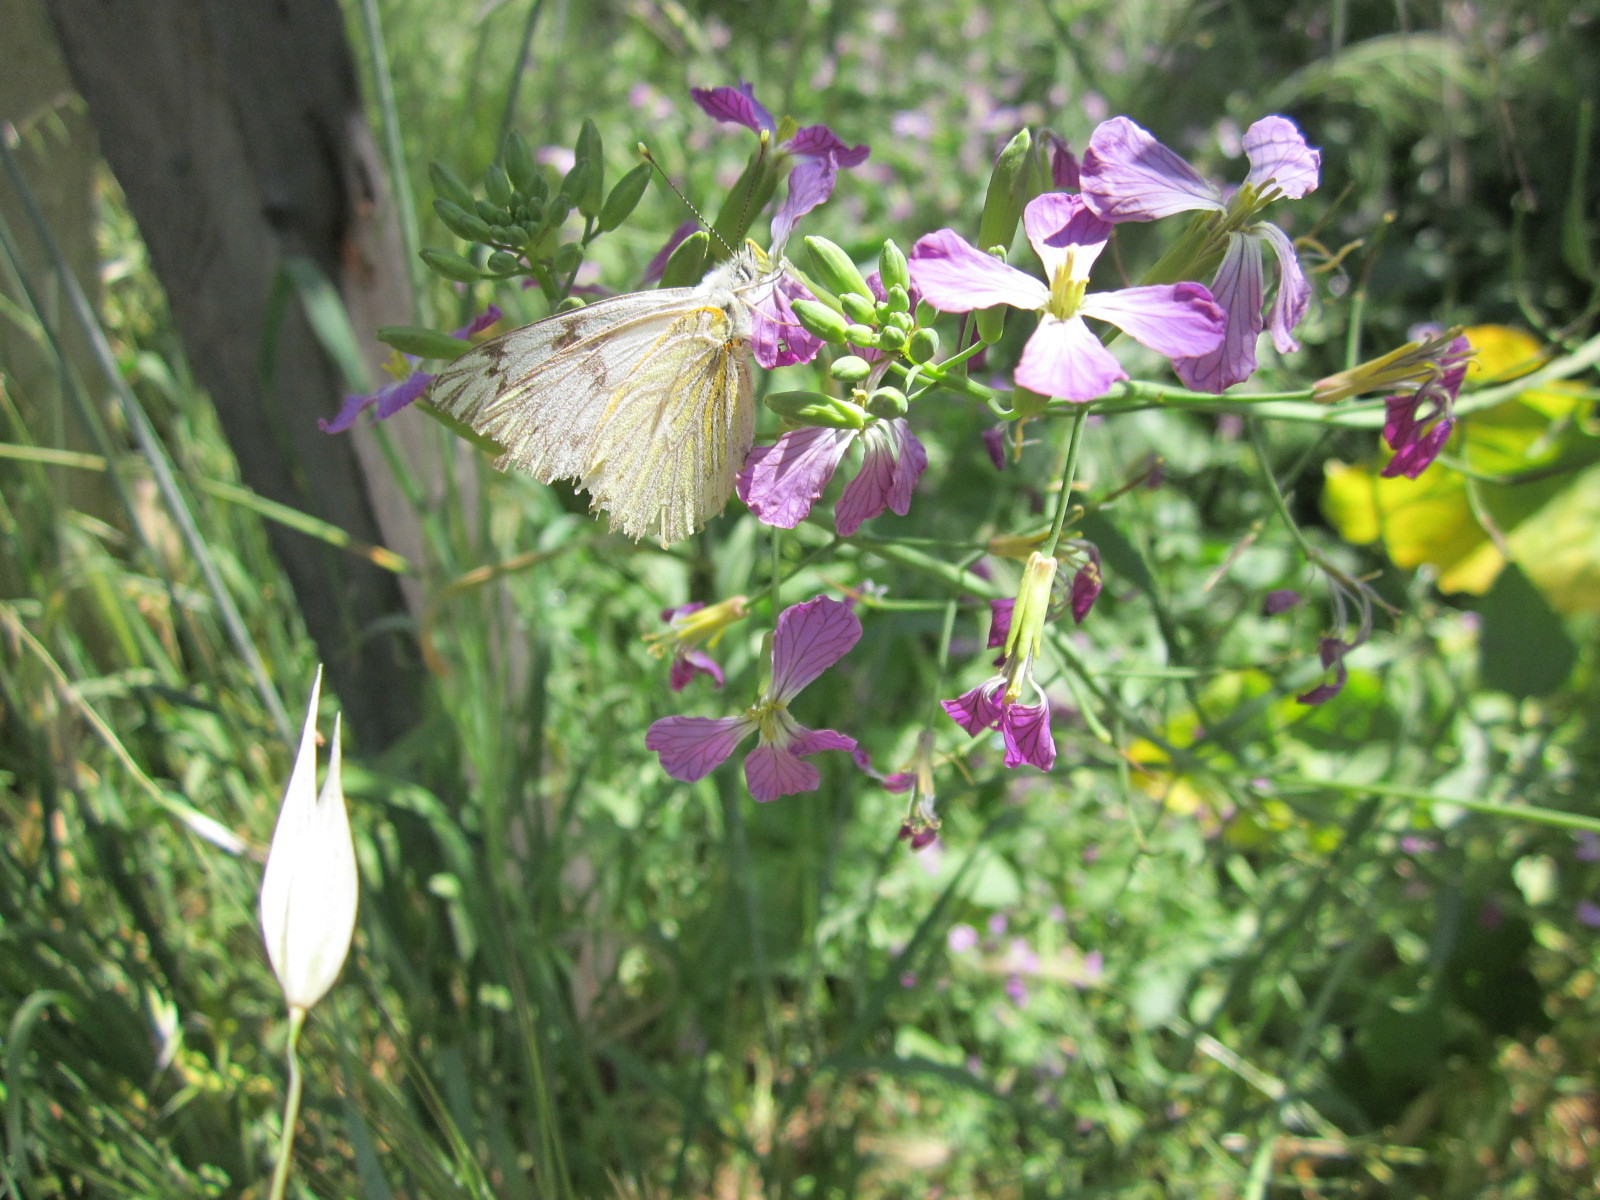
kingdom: Animalia
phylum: Arthropoda
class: Insecta
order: Lepidoptera
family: Pieridae
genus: Tatochila
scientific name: Tatochila mercedis
